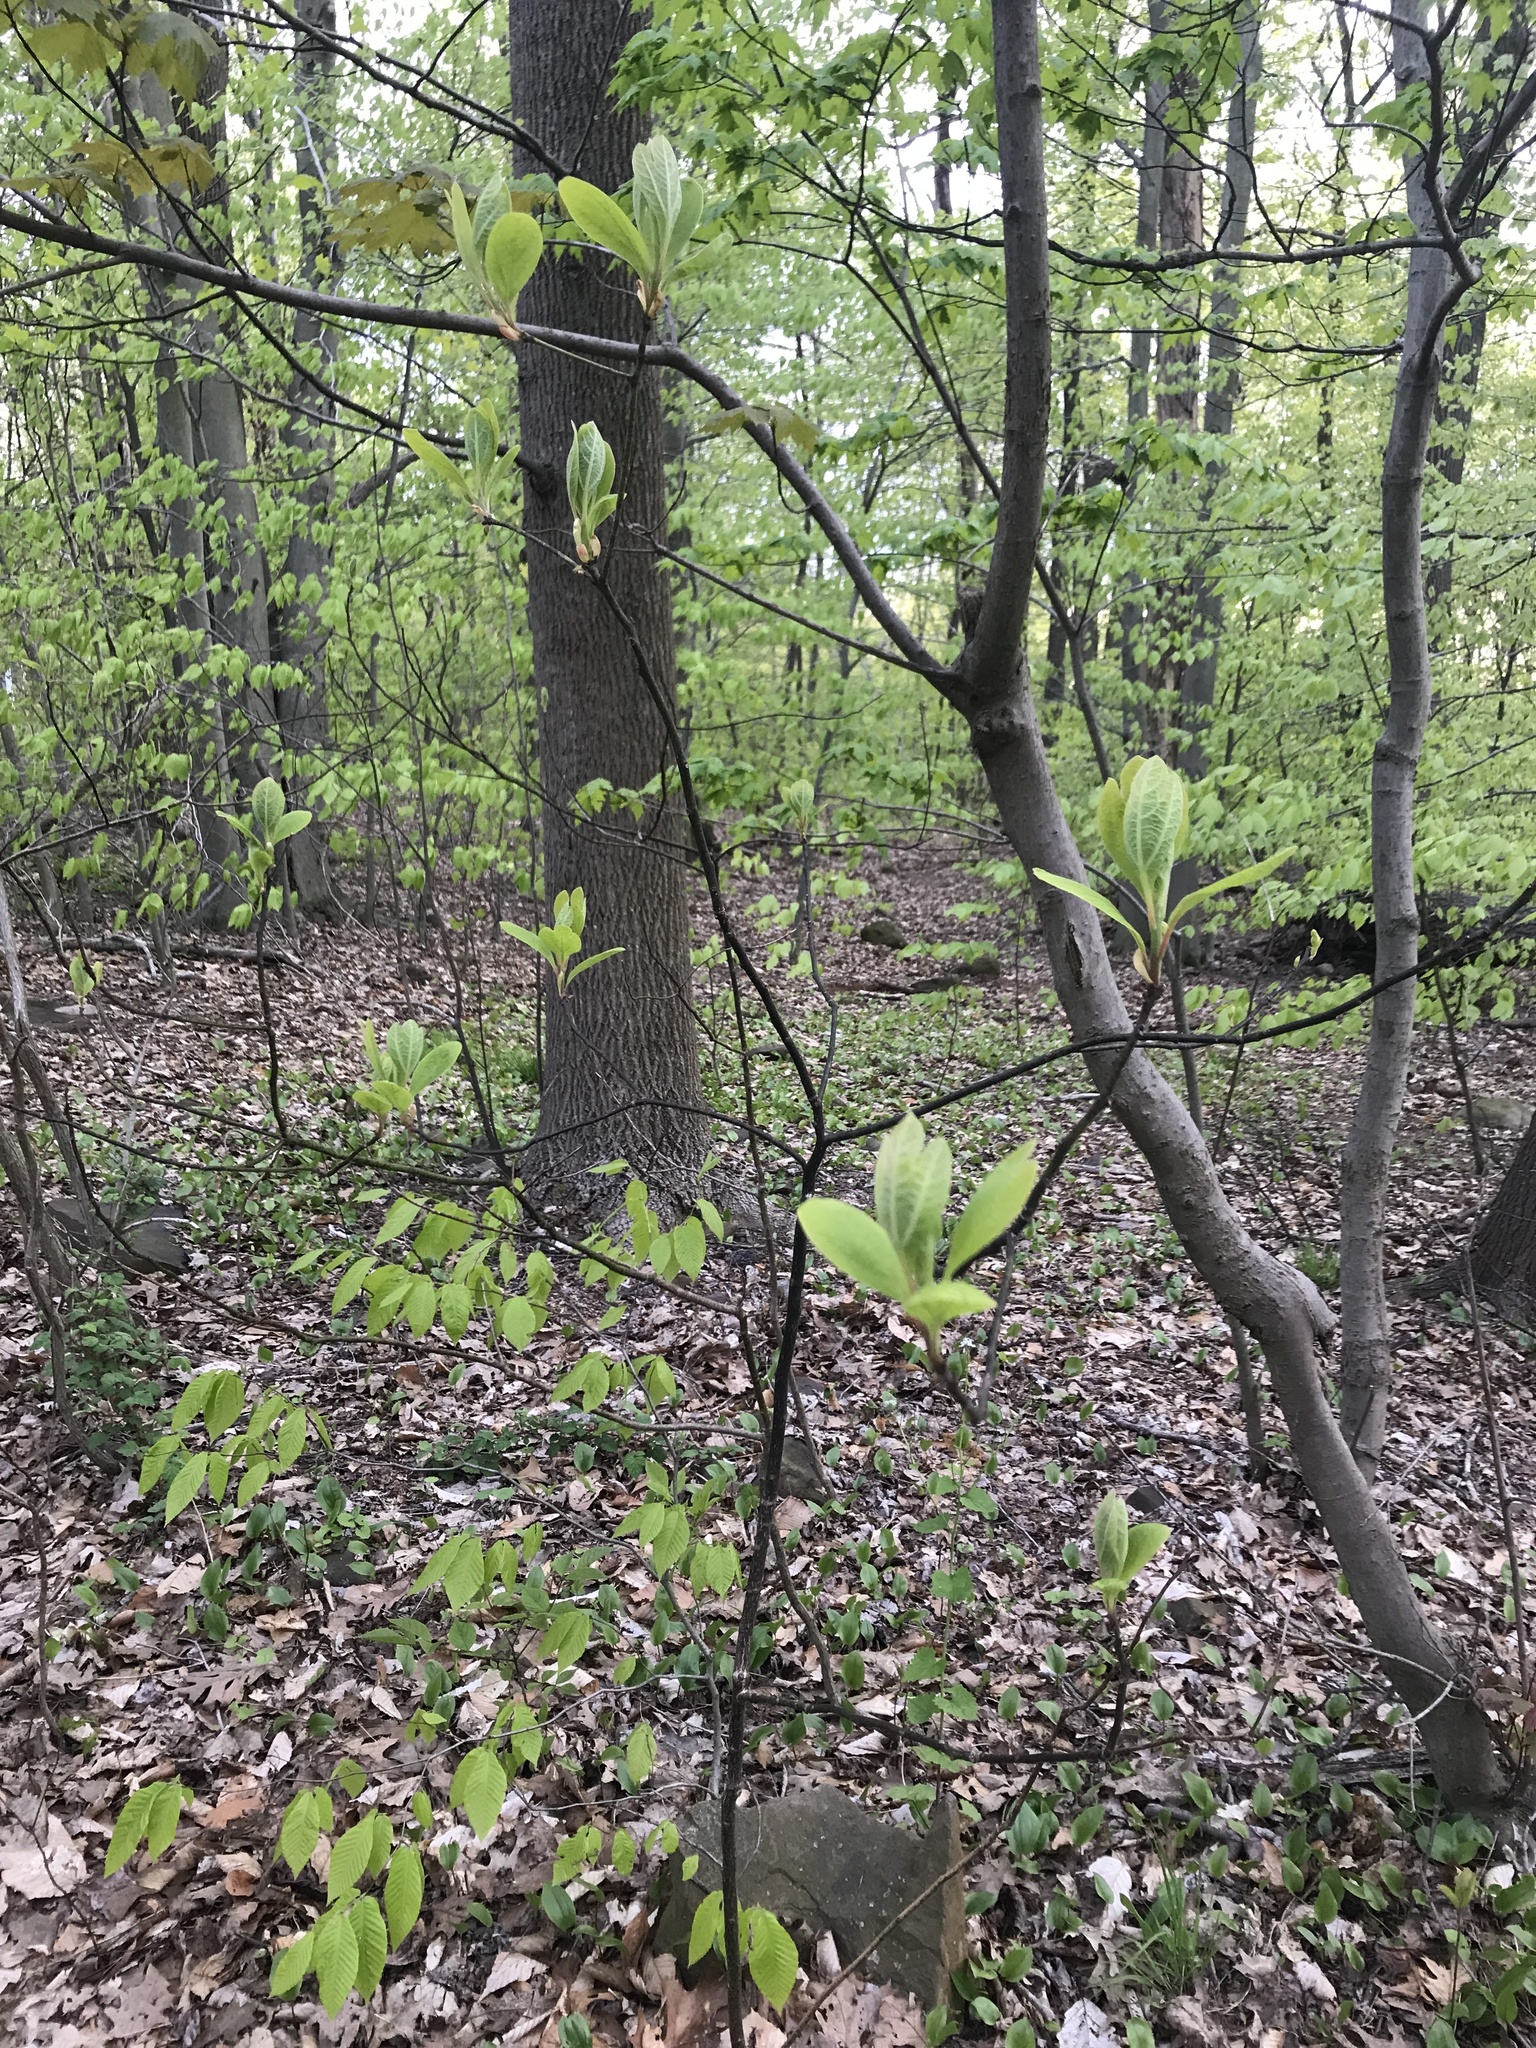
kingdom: Plantae
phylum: Tracheophyta
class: Magnoliopsida
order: Laurales
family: Lauraceae
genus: Sassafras
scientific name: Sassafras albidum
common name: Sassafras
